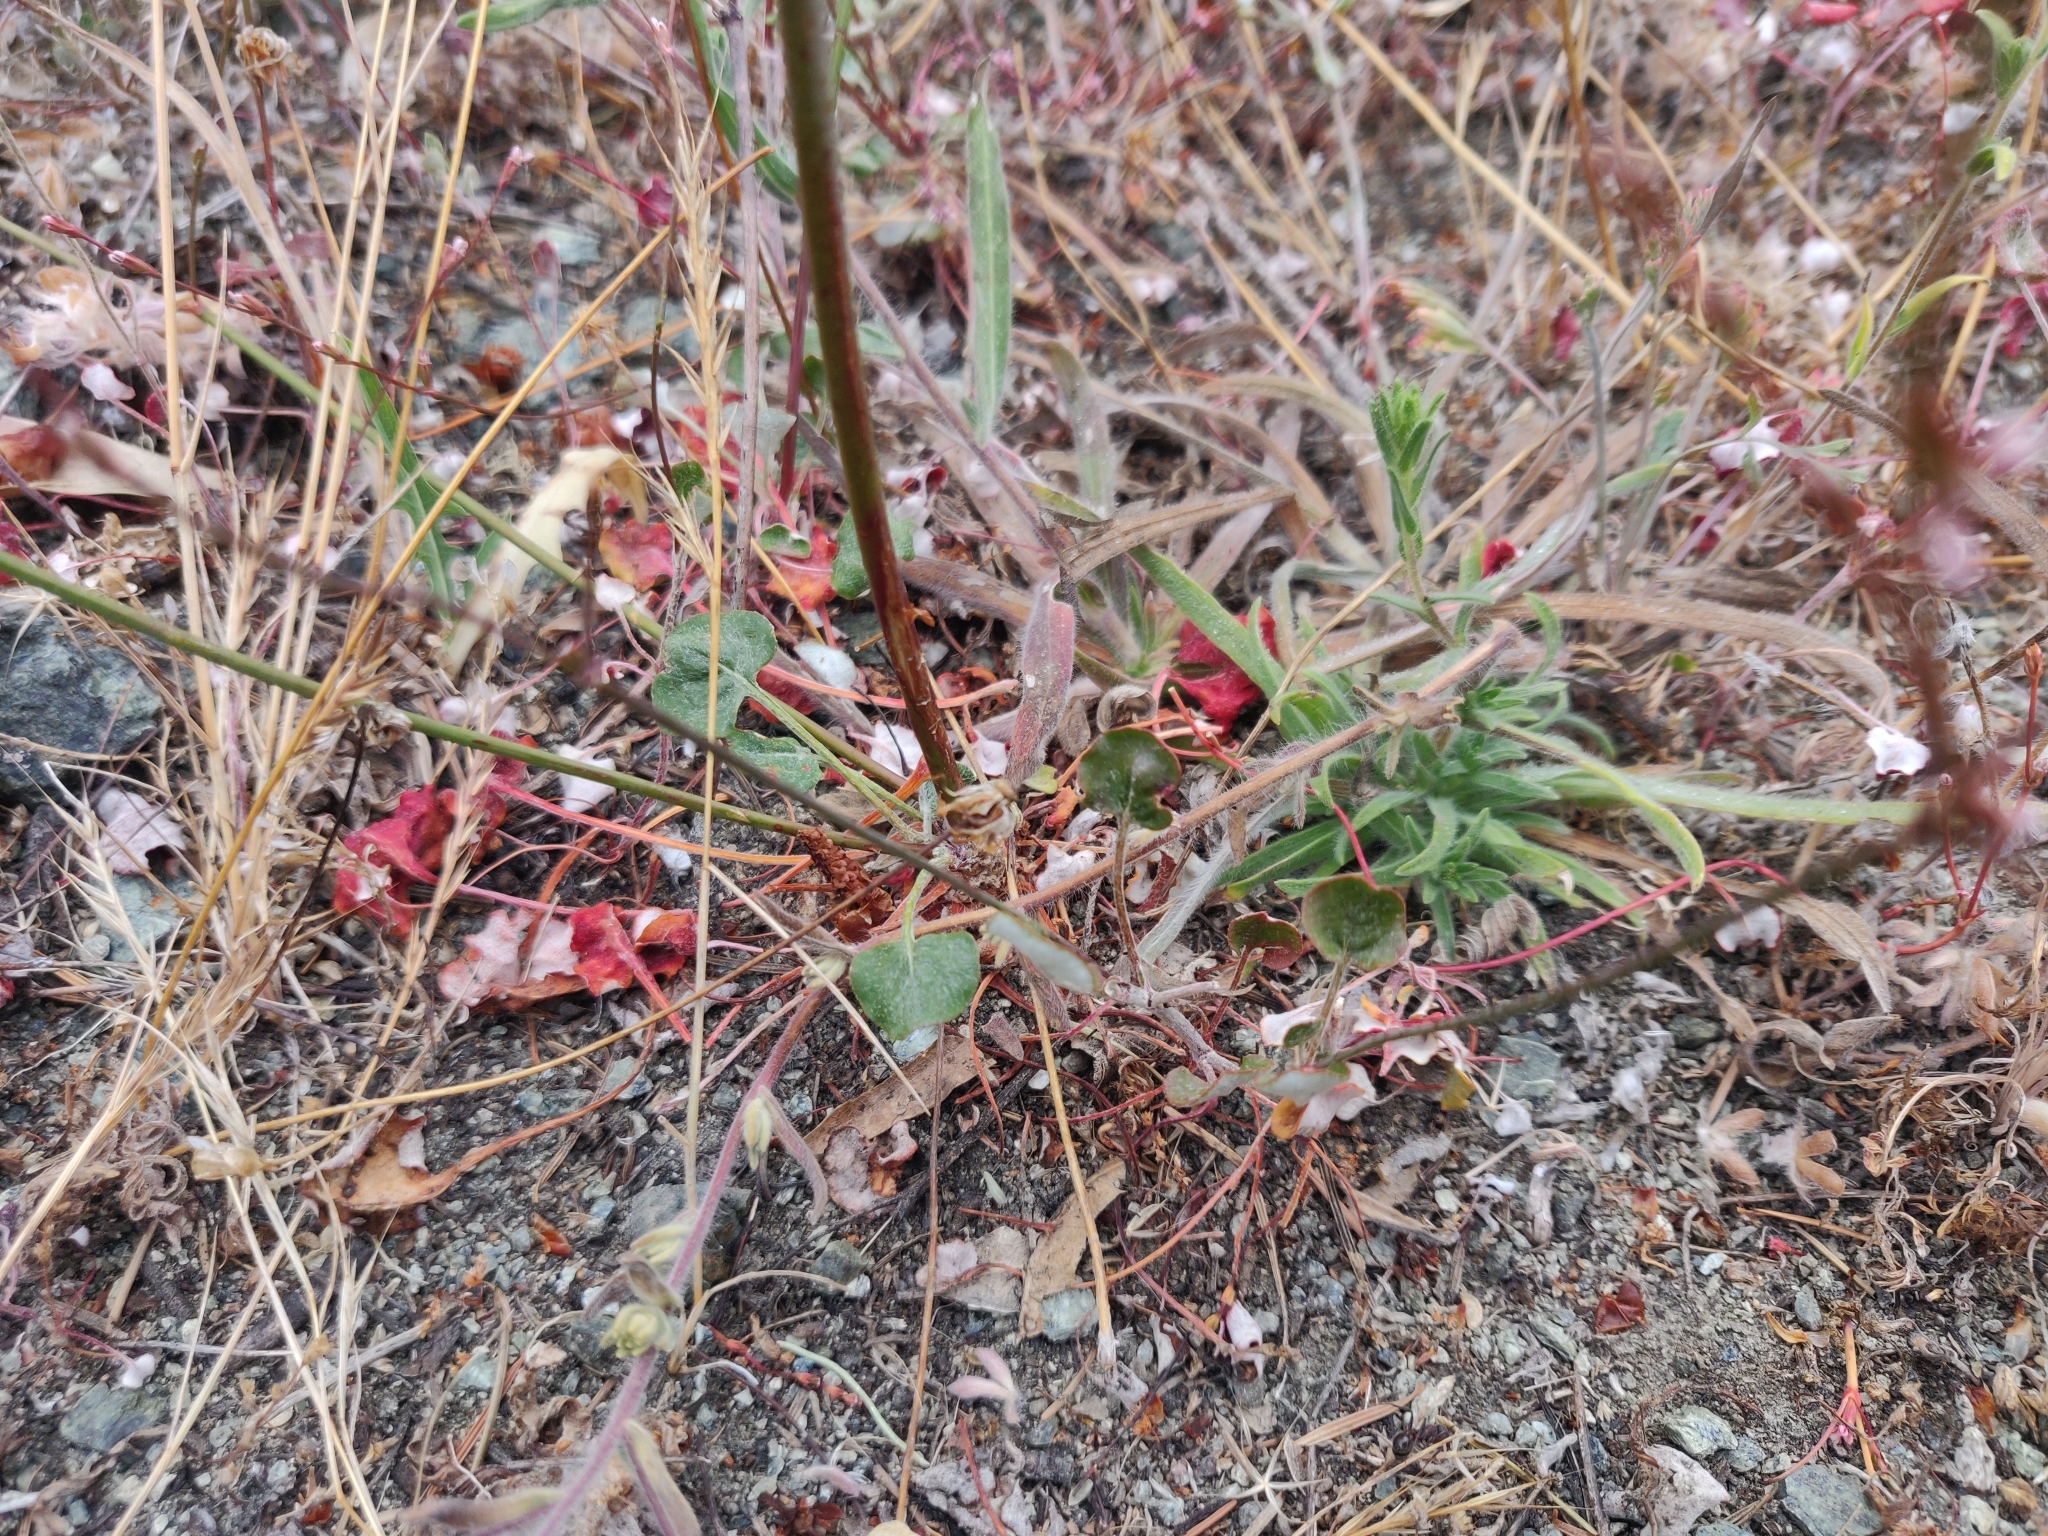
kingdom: Plantae
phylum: Tracheophyta
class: Magnoliopsida
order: Caryophyllales
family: Polygonaceae
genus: Eriogonum
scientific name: Eriogonum luteolum
